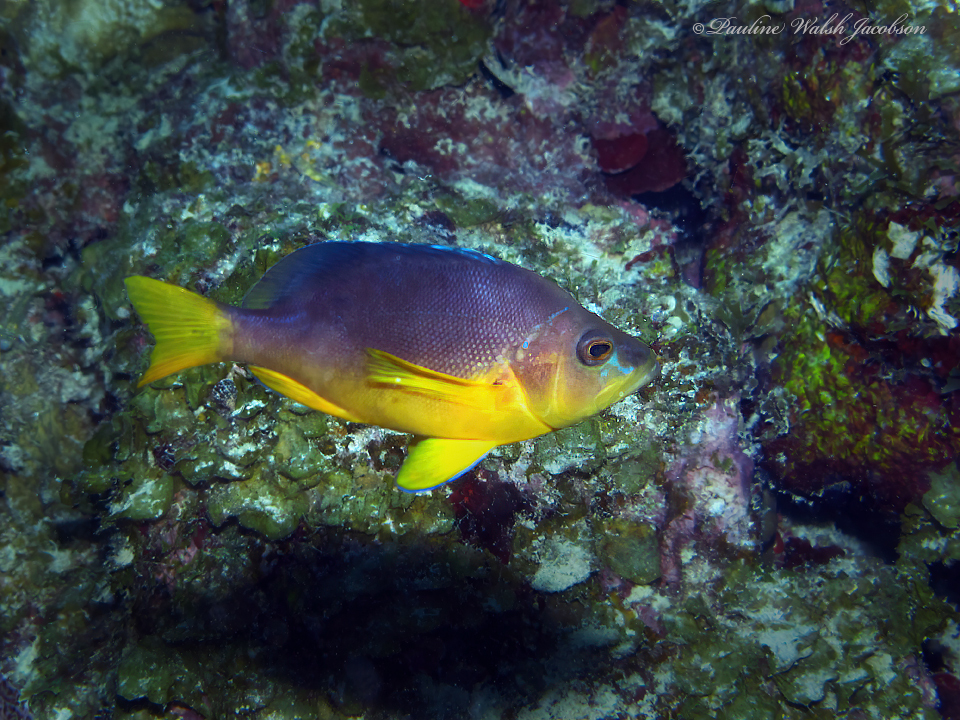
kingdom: Animalia
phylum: Chordata
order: Perciformes
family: Serranidae
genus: Hypoplectrus
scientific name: Hypoplectrus aberrans
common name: Yellowbelly hamlet
